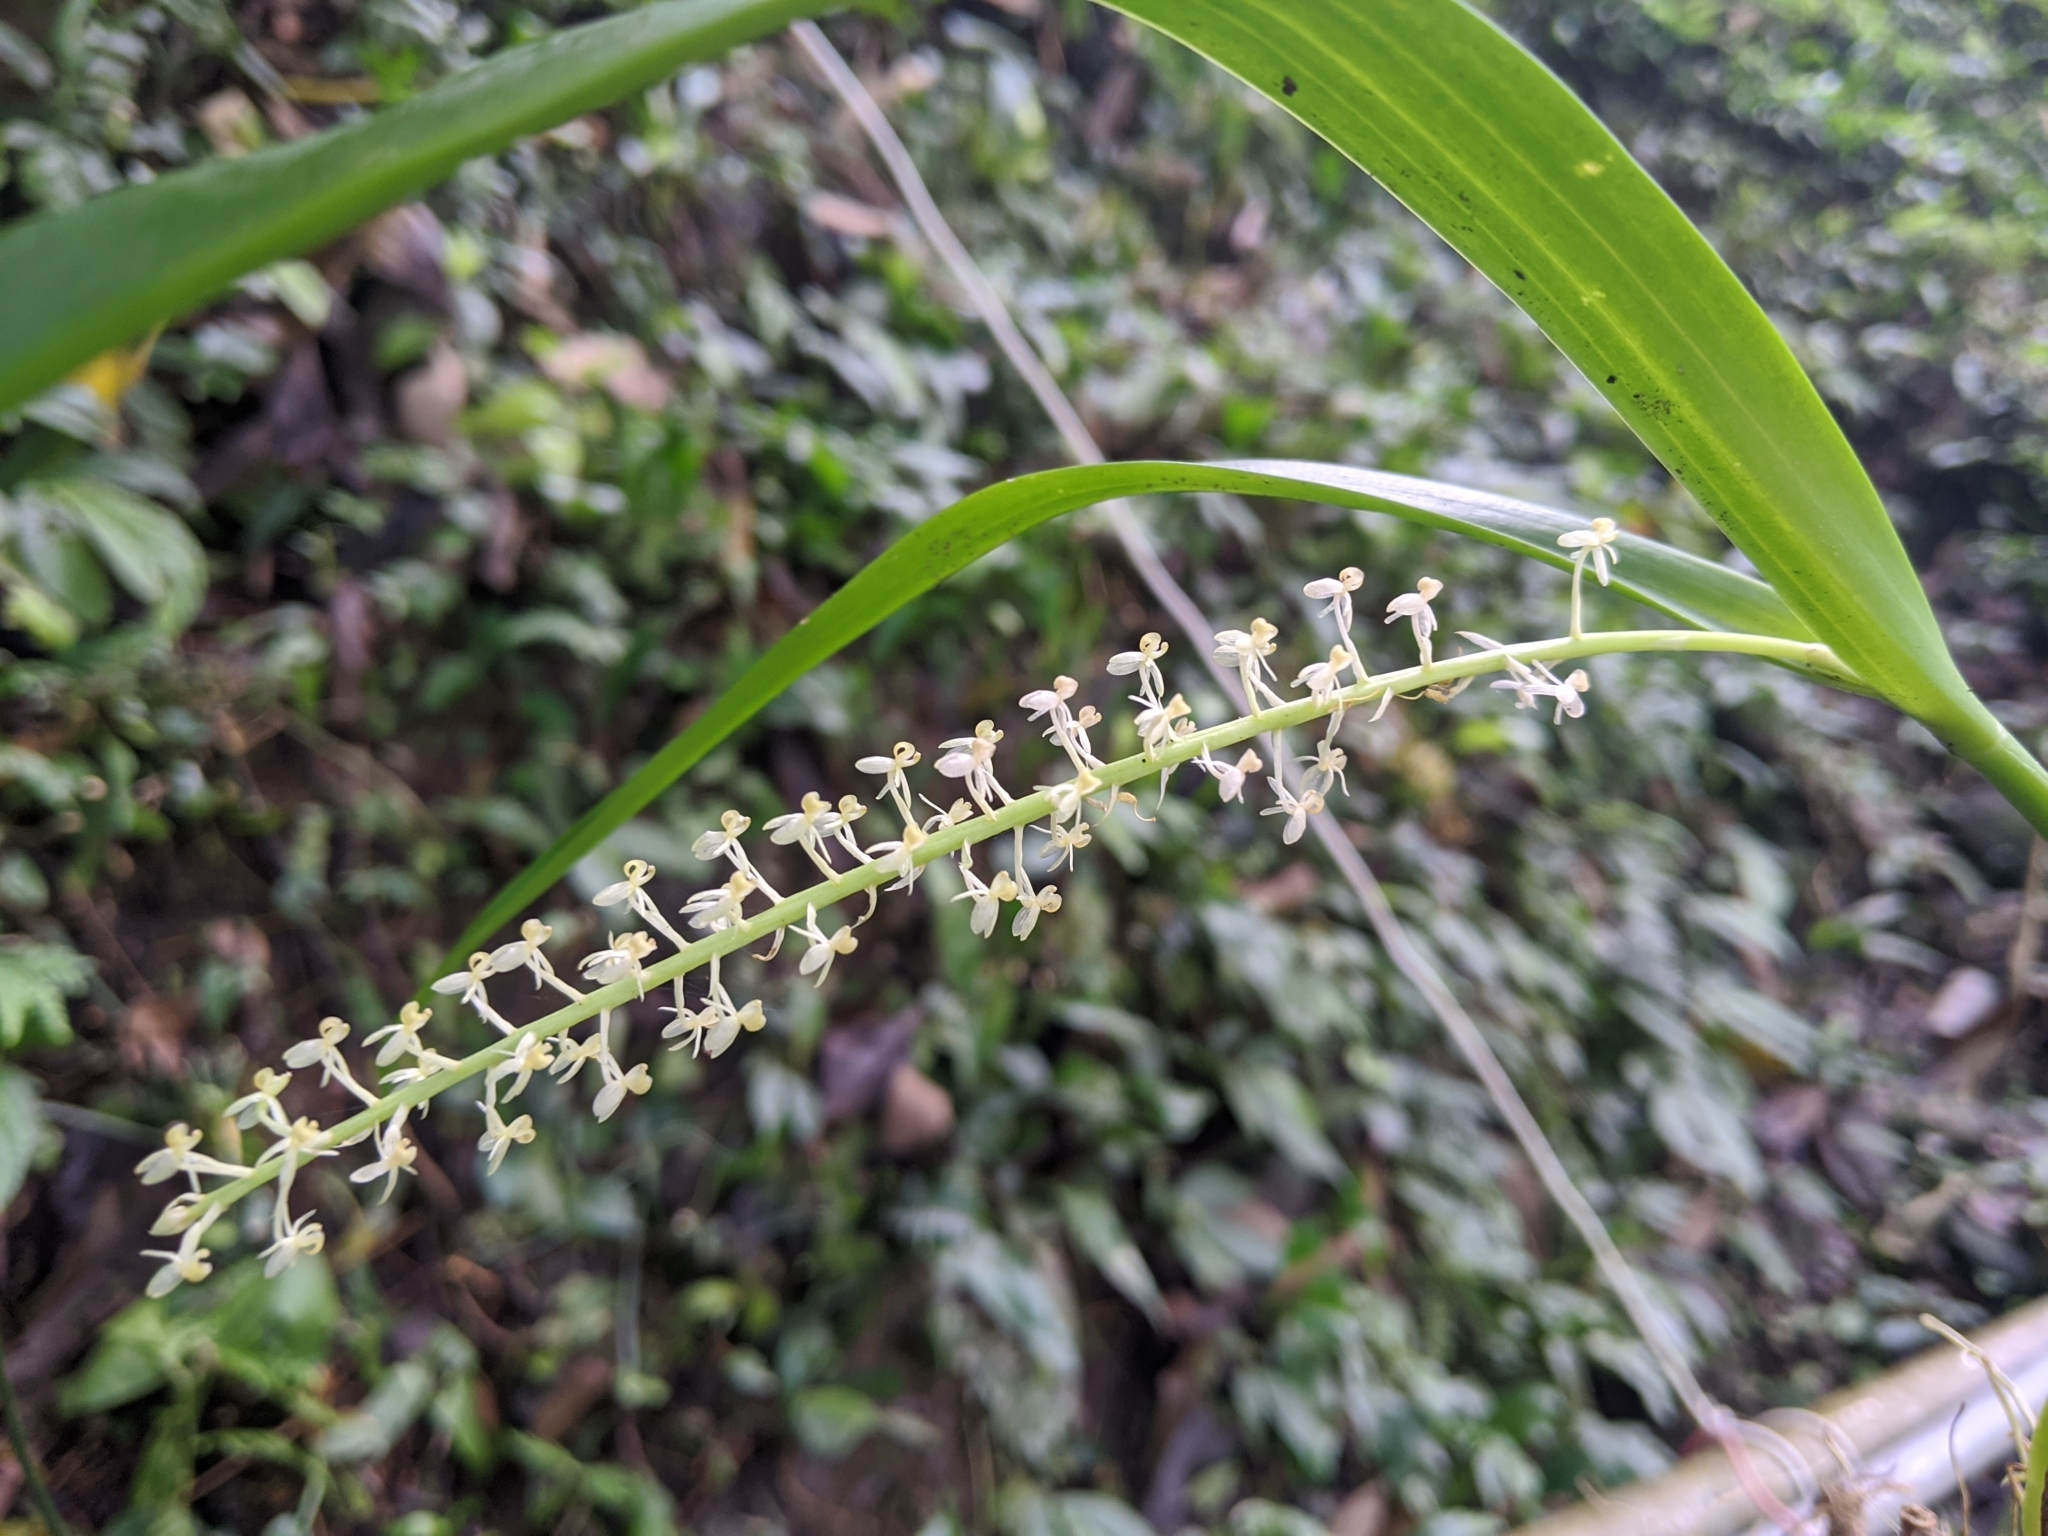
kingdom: Plantae
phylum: Tracheophyta
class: Liliopsida
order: Asparagales
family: Orchidaceae
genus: Liparis
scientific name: Liparis condylobulbon
